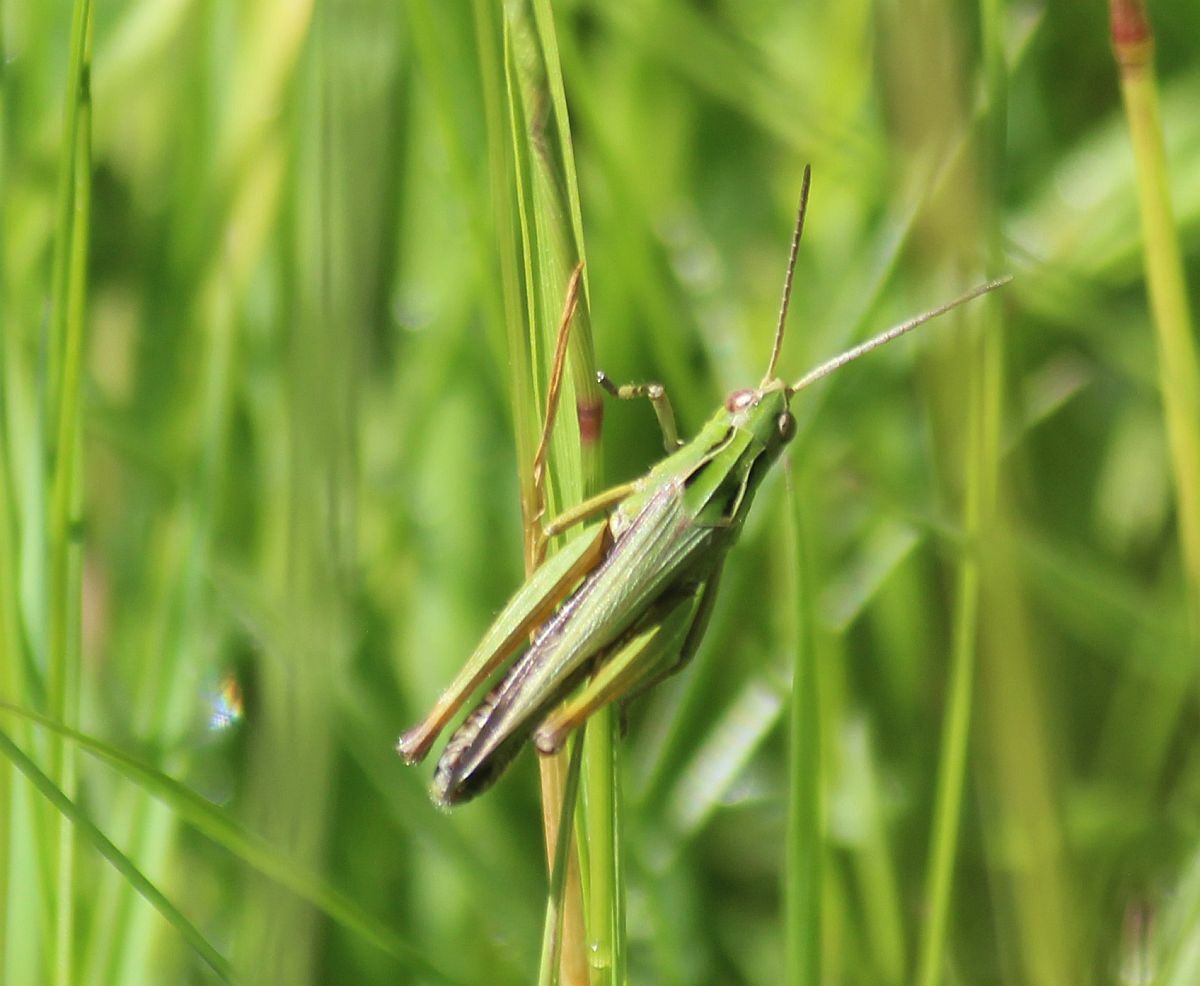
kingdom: Animalia
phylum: Arthropoda
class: Insecta
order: Orthoptera
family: Acrididae
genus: Omocestus
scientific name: Omocestus viridulus
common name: Common green grasshopper
